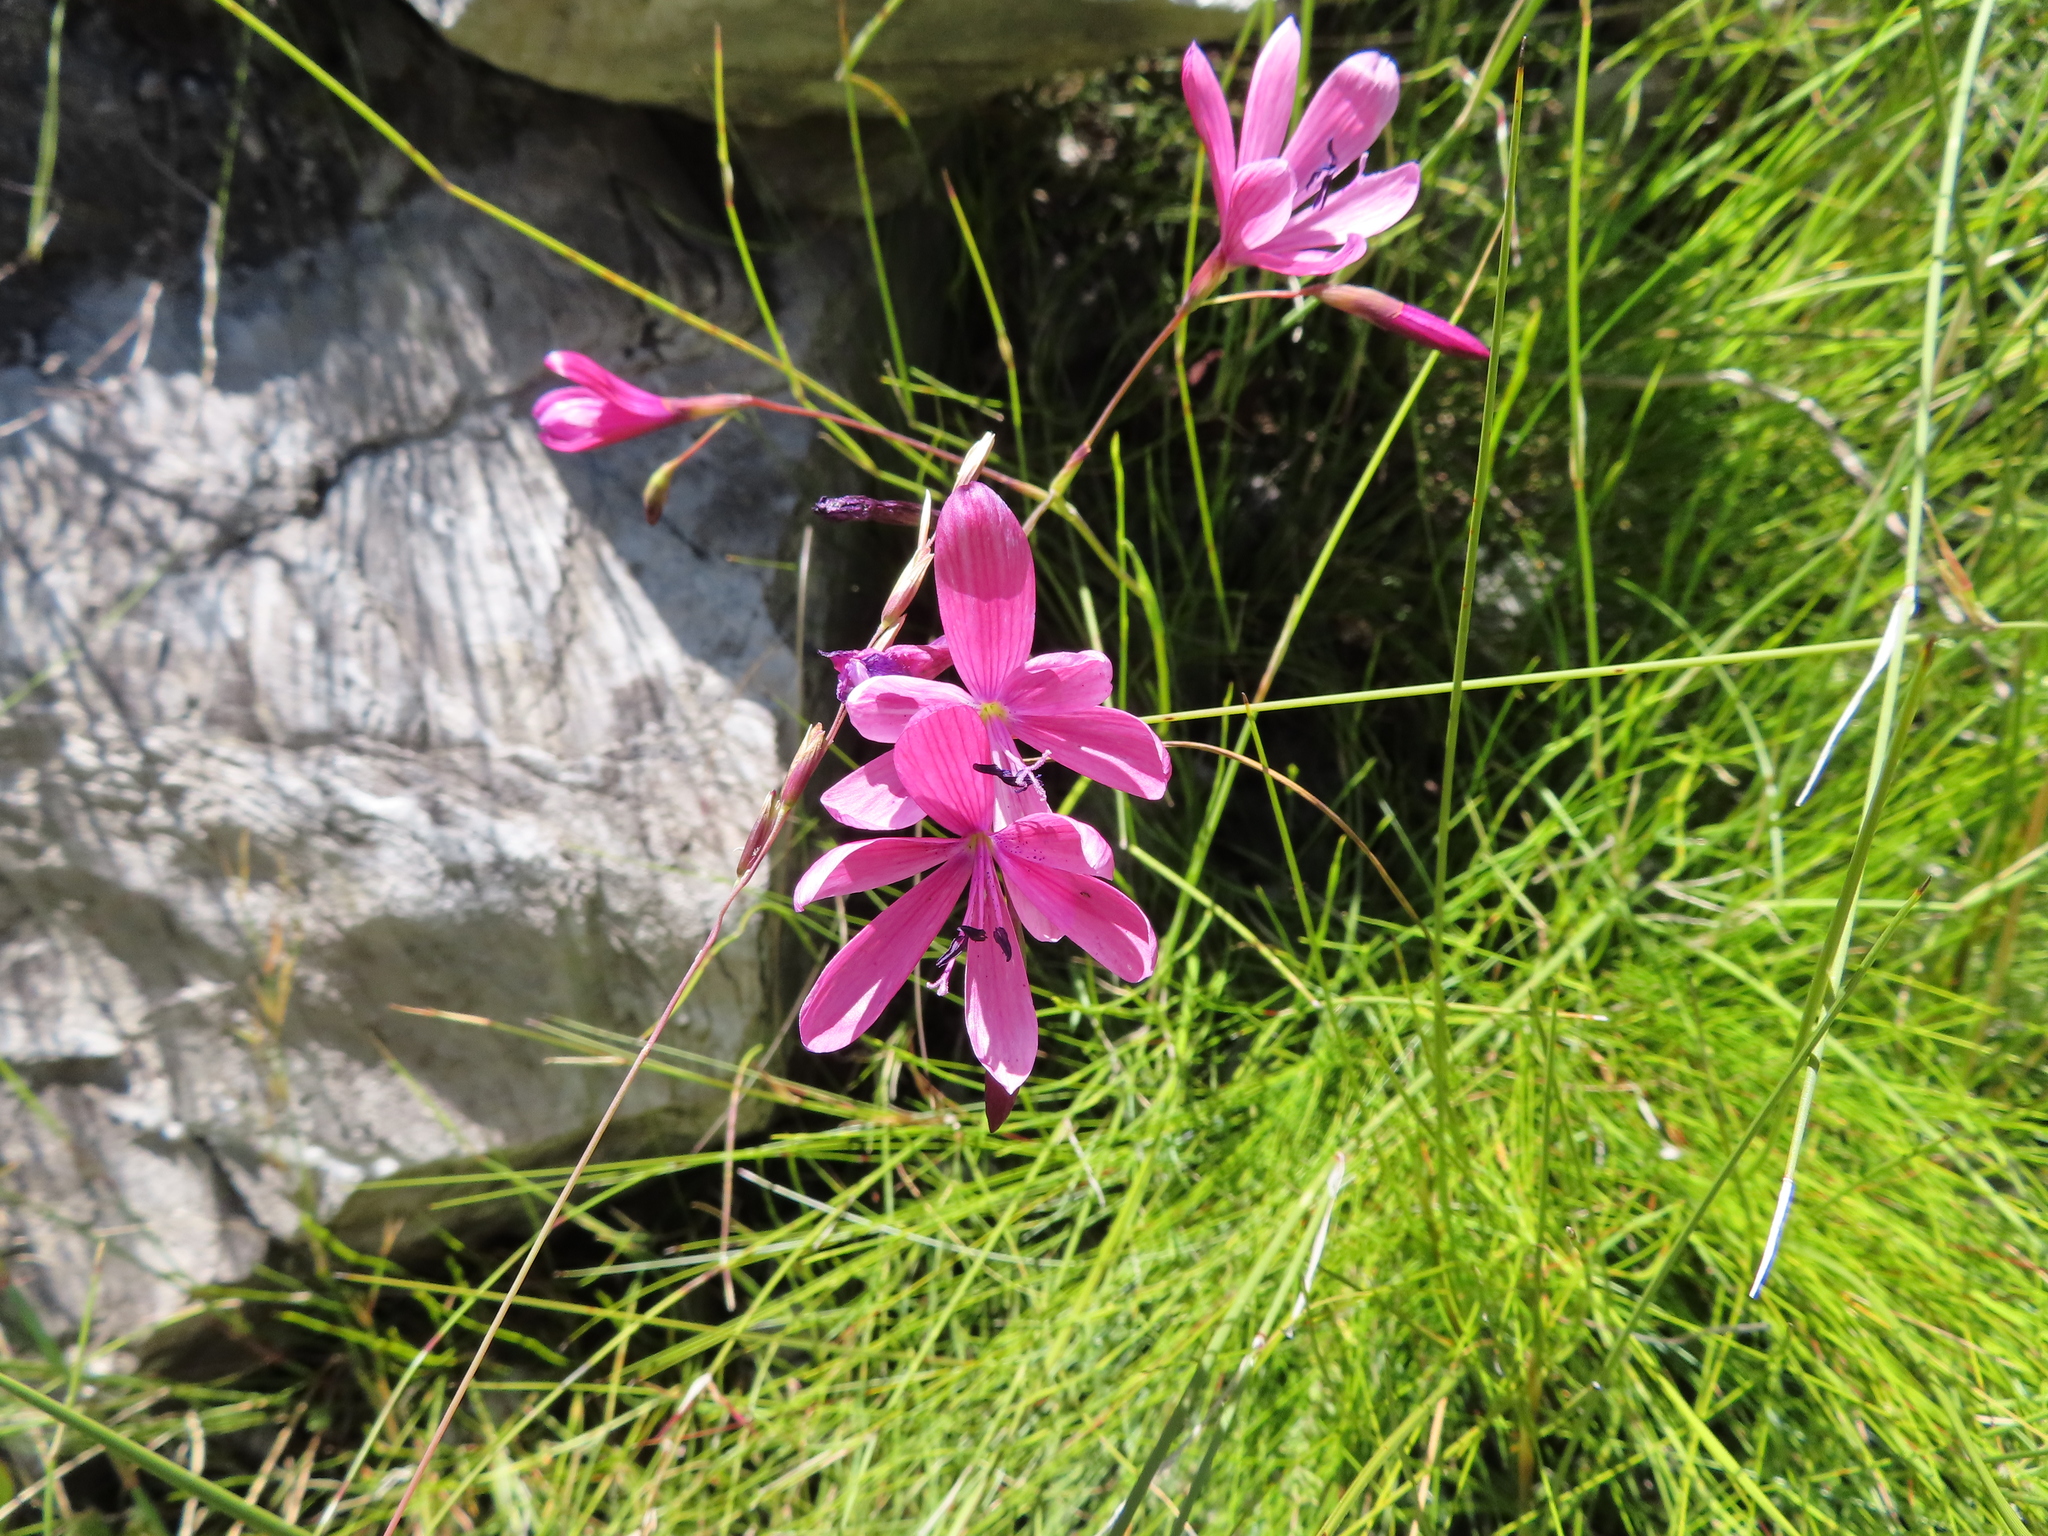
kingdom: Plantae
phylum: Tracheophyta
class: Liliopsida
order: Asparagales
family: Iridaceae
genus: Geissorhiza
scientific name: Geissorhiza burchellii
